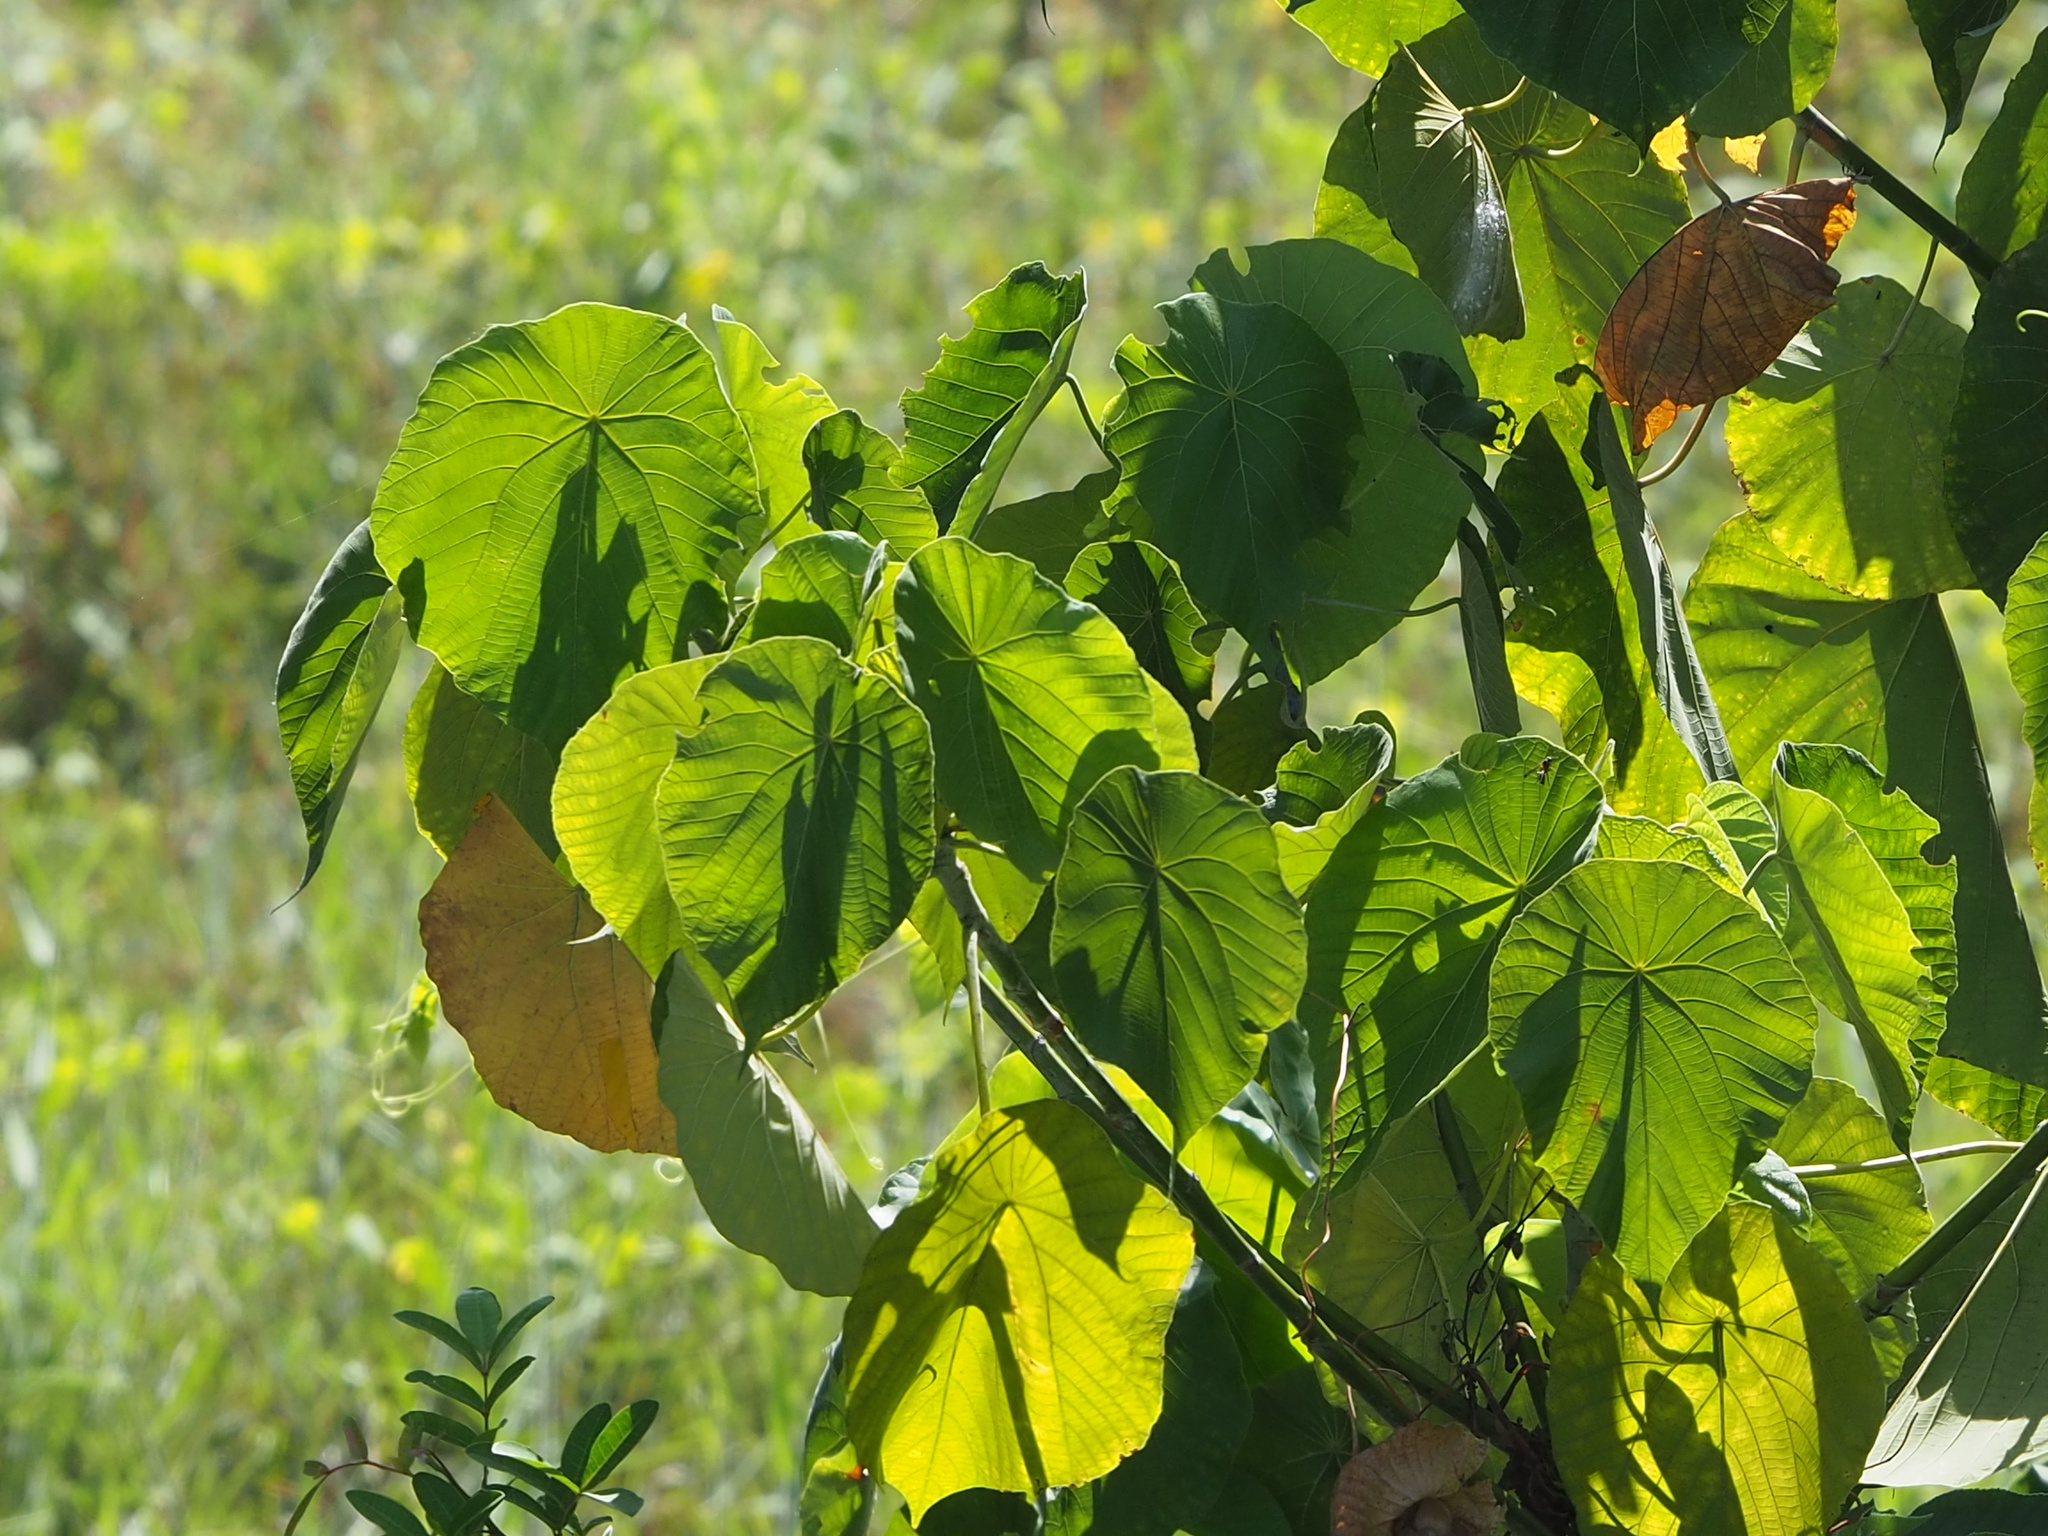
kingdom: Plantae
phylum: Tracheophyta
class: Magnoliopsida
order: Malpighiales
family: Euphorbiaceae
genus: Macaranga
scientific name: Macaranga tanarius
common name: Parasol leaf tree
